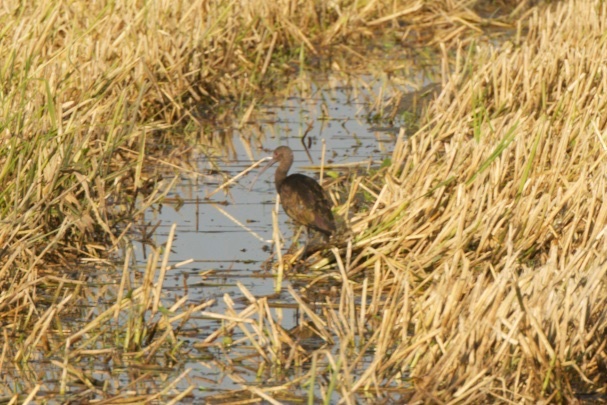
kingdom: Animalia
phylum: Chordata
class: Aves
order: Pelecaniformes
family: Threskiornithidae
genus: Plegadis
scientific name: Plegadis chihi
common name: White-faced ibis
